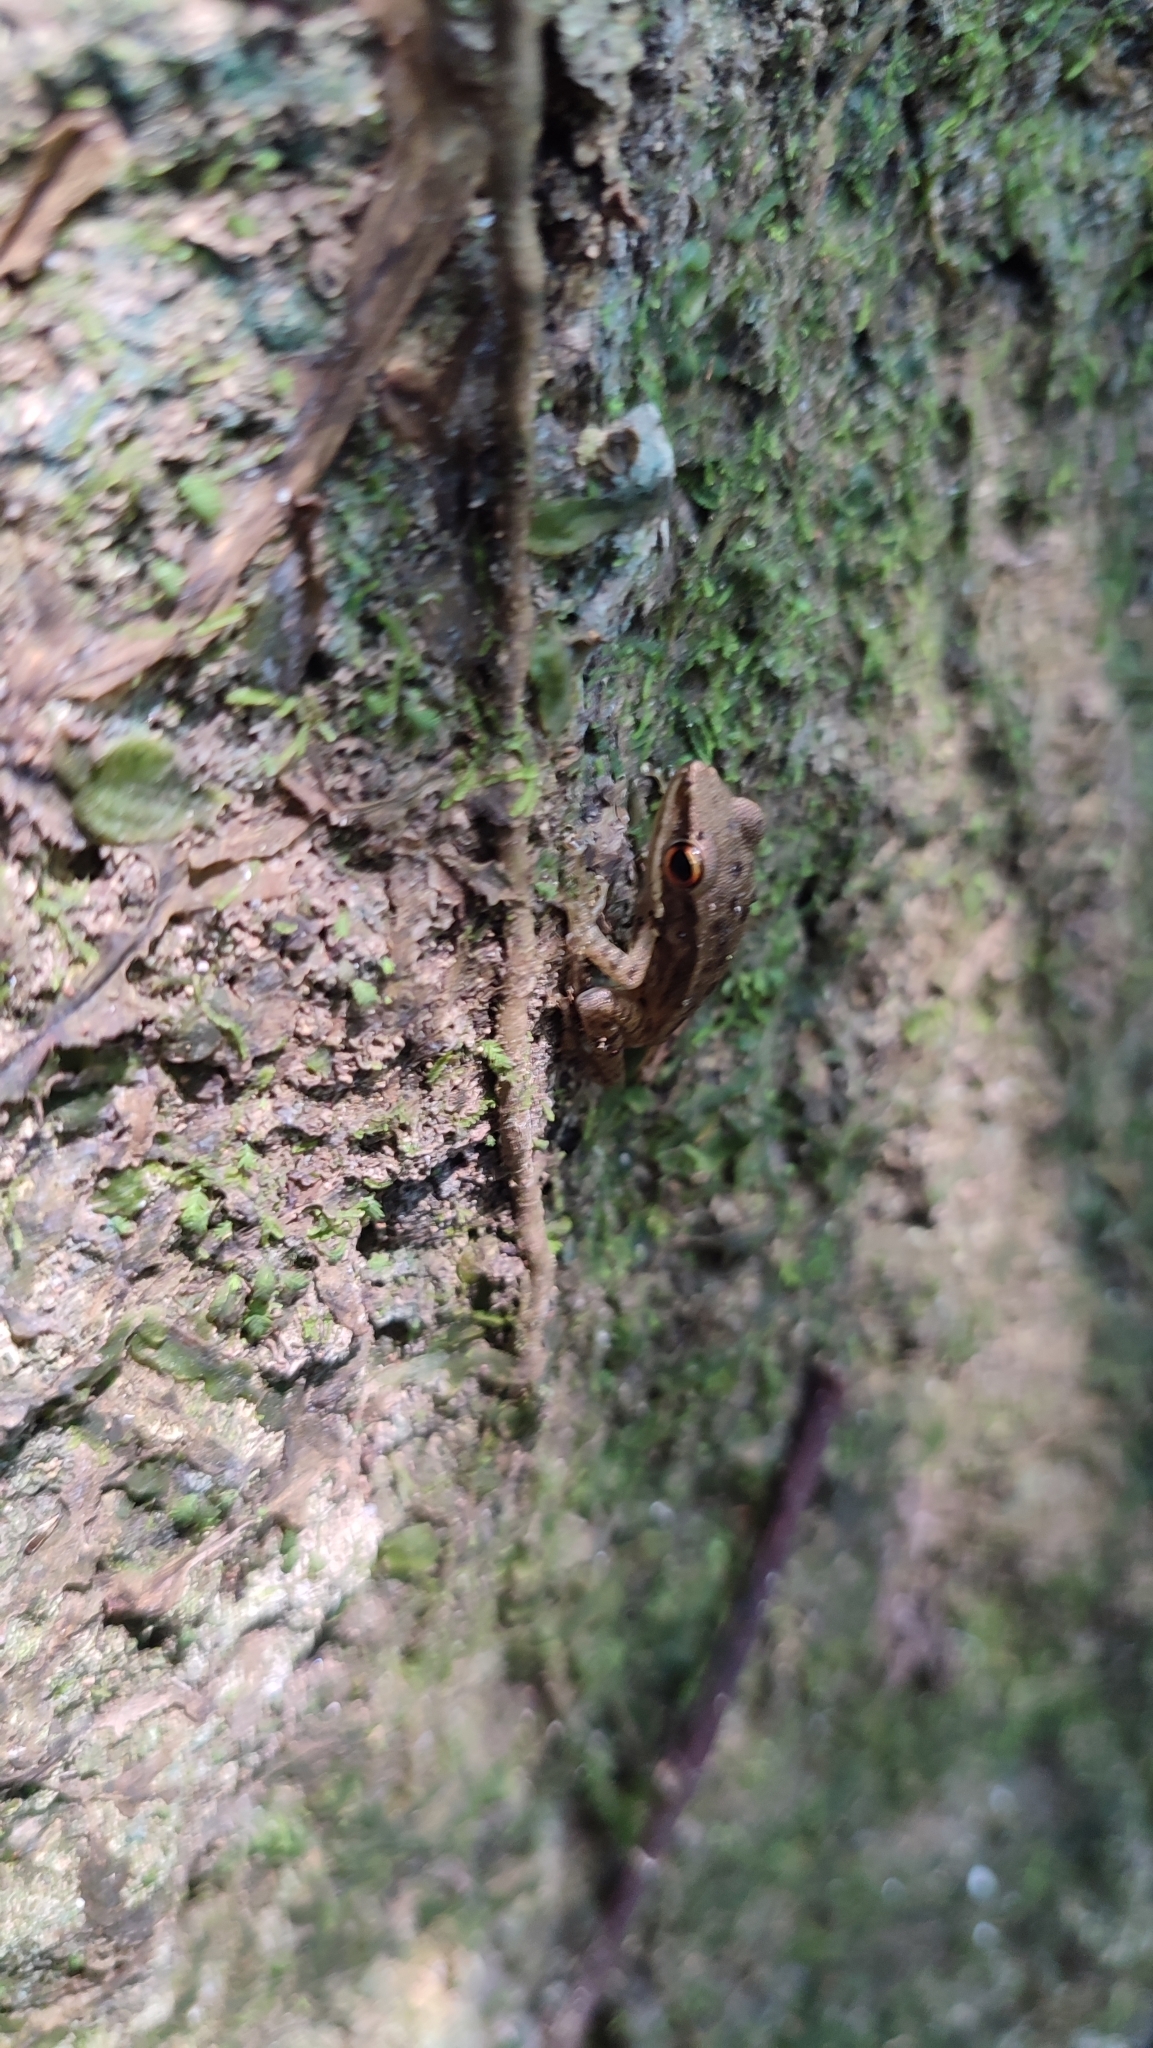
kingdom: Animalia
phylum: Chordata
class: Amphibia
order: Anura
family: Ranidae
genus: Chalcorana
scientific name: Chalcorana chalconota
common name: Schlegel's frog
